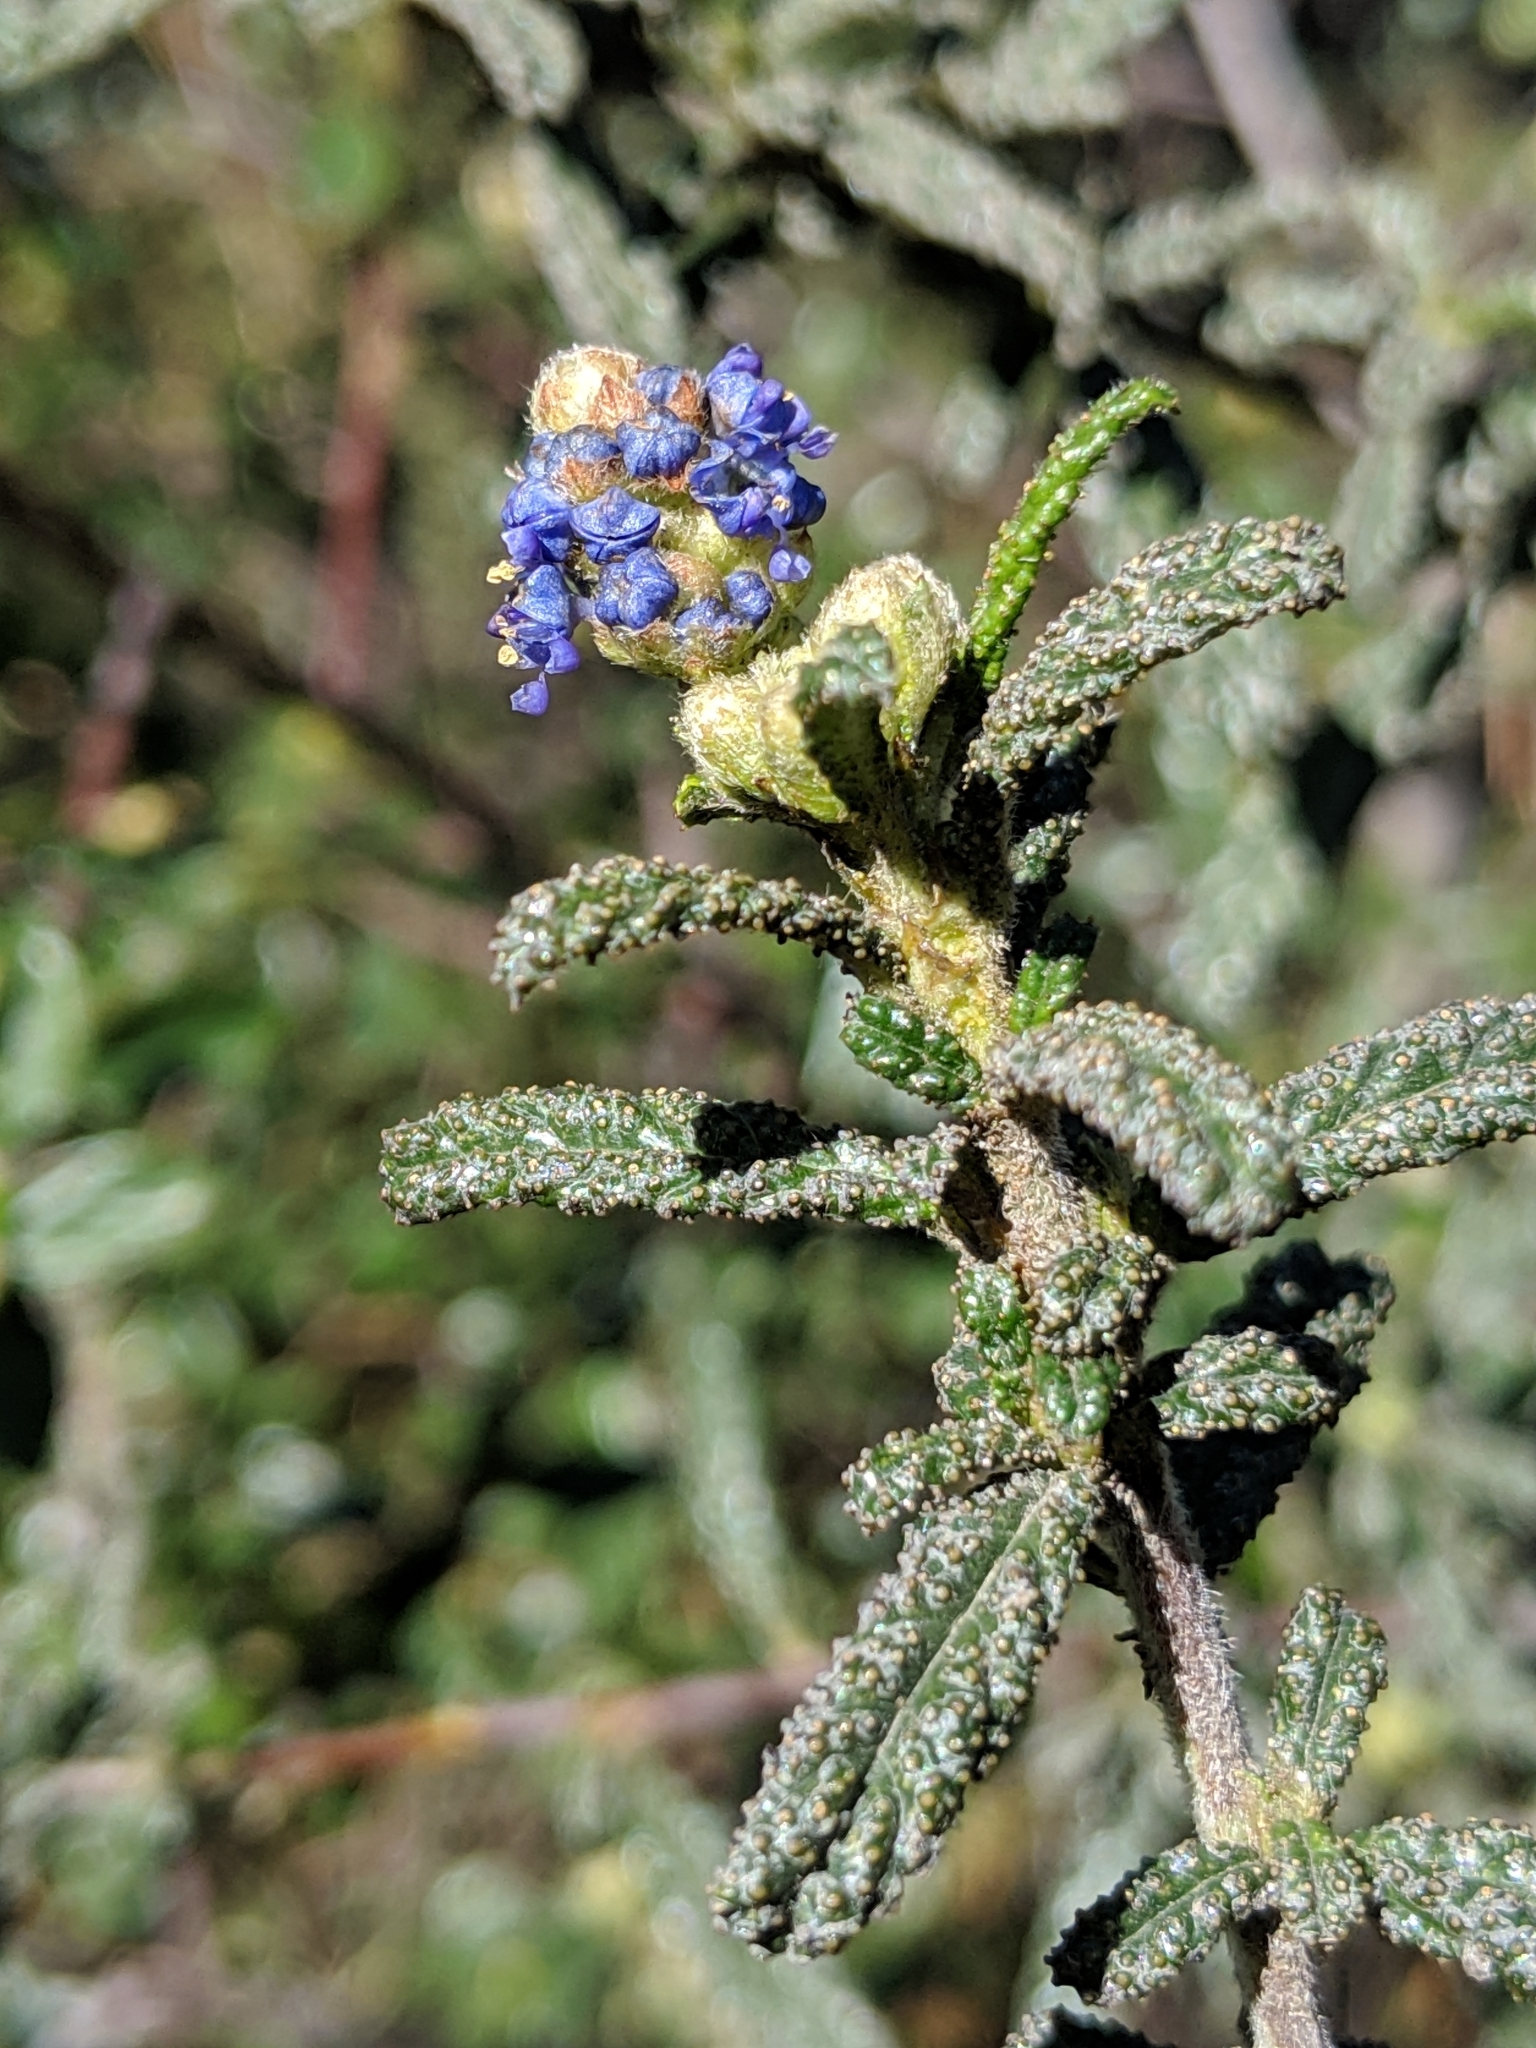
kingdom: Plantae
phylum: Tracheophyta
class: Magnoliopsida
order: Rosales
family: Rhamnaceae
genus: Ceanothus
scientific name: Ceanothus papillosus
